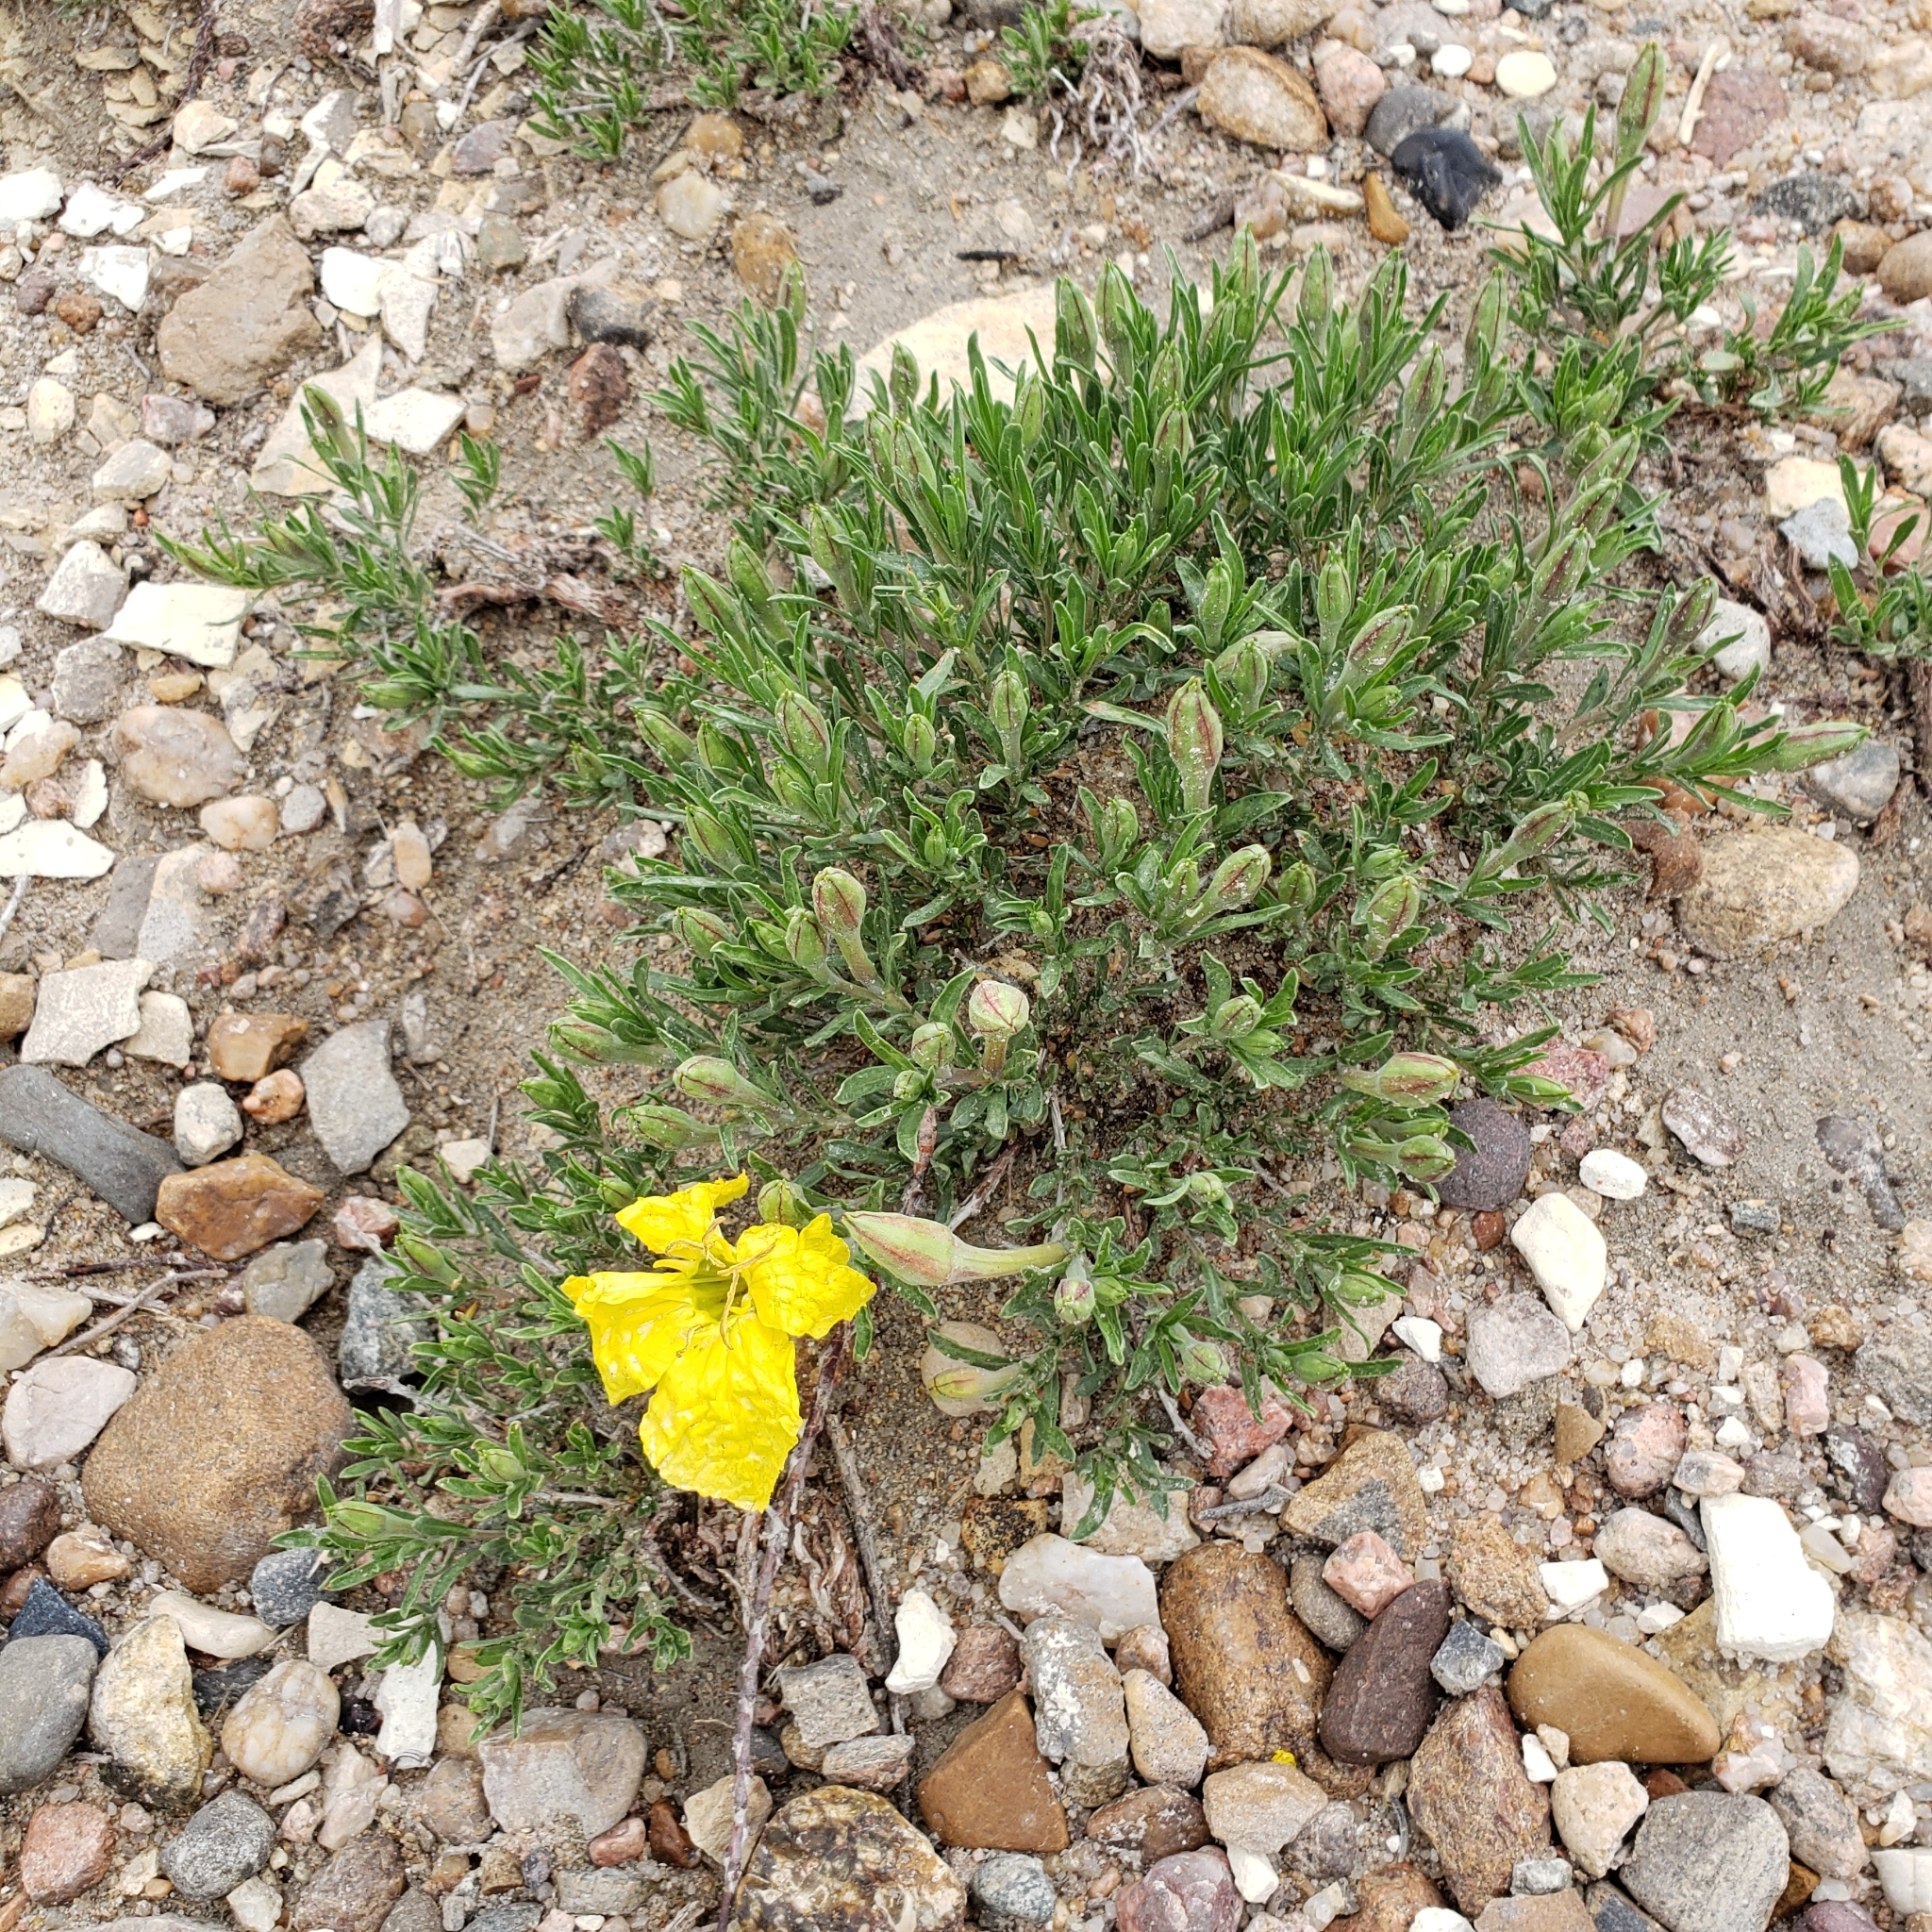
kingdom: Plantae
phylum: Tracheophyta
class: Magnoliopsida
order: Myrtales
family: Onagraceae
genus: Oenothera
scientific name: Oenothera lavandulifolia
